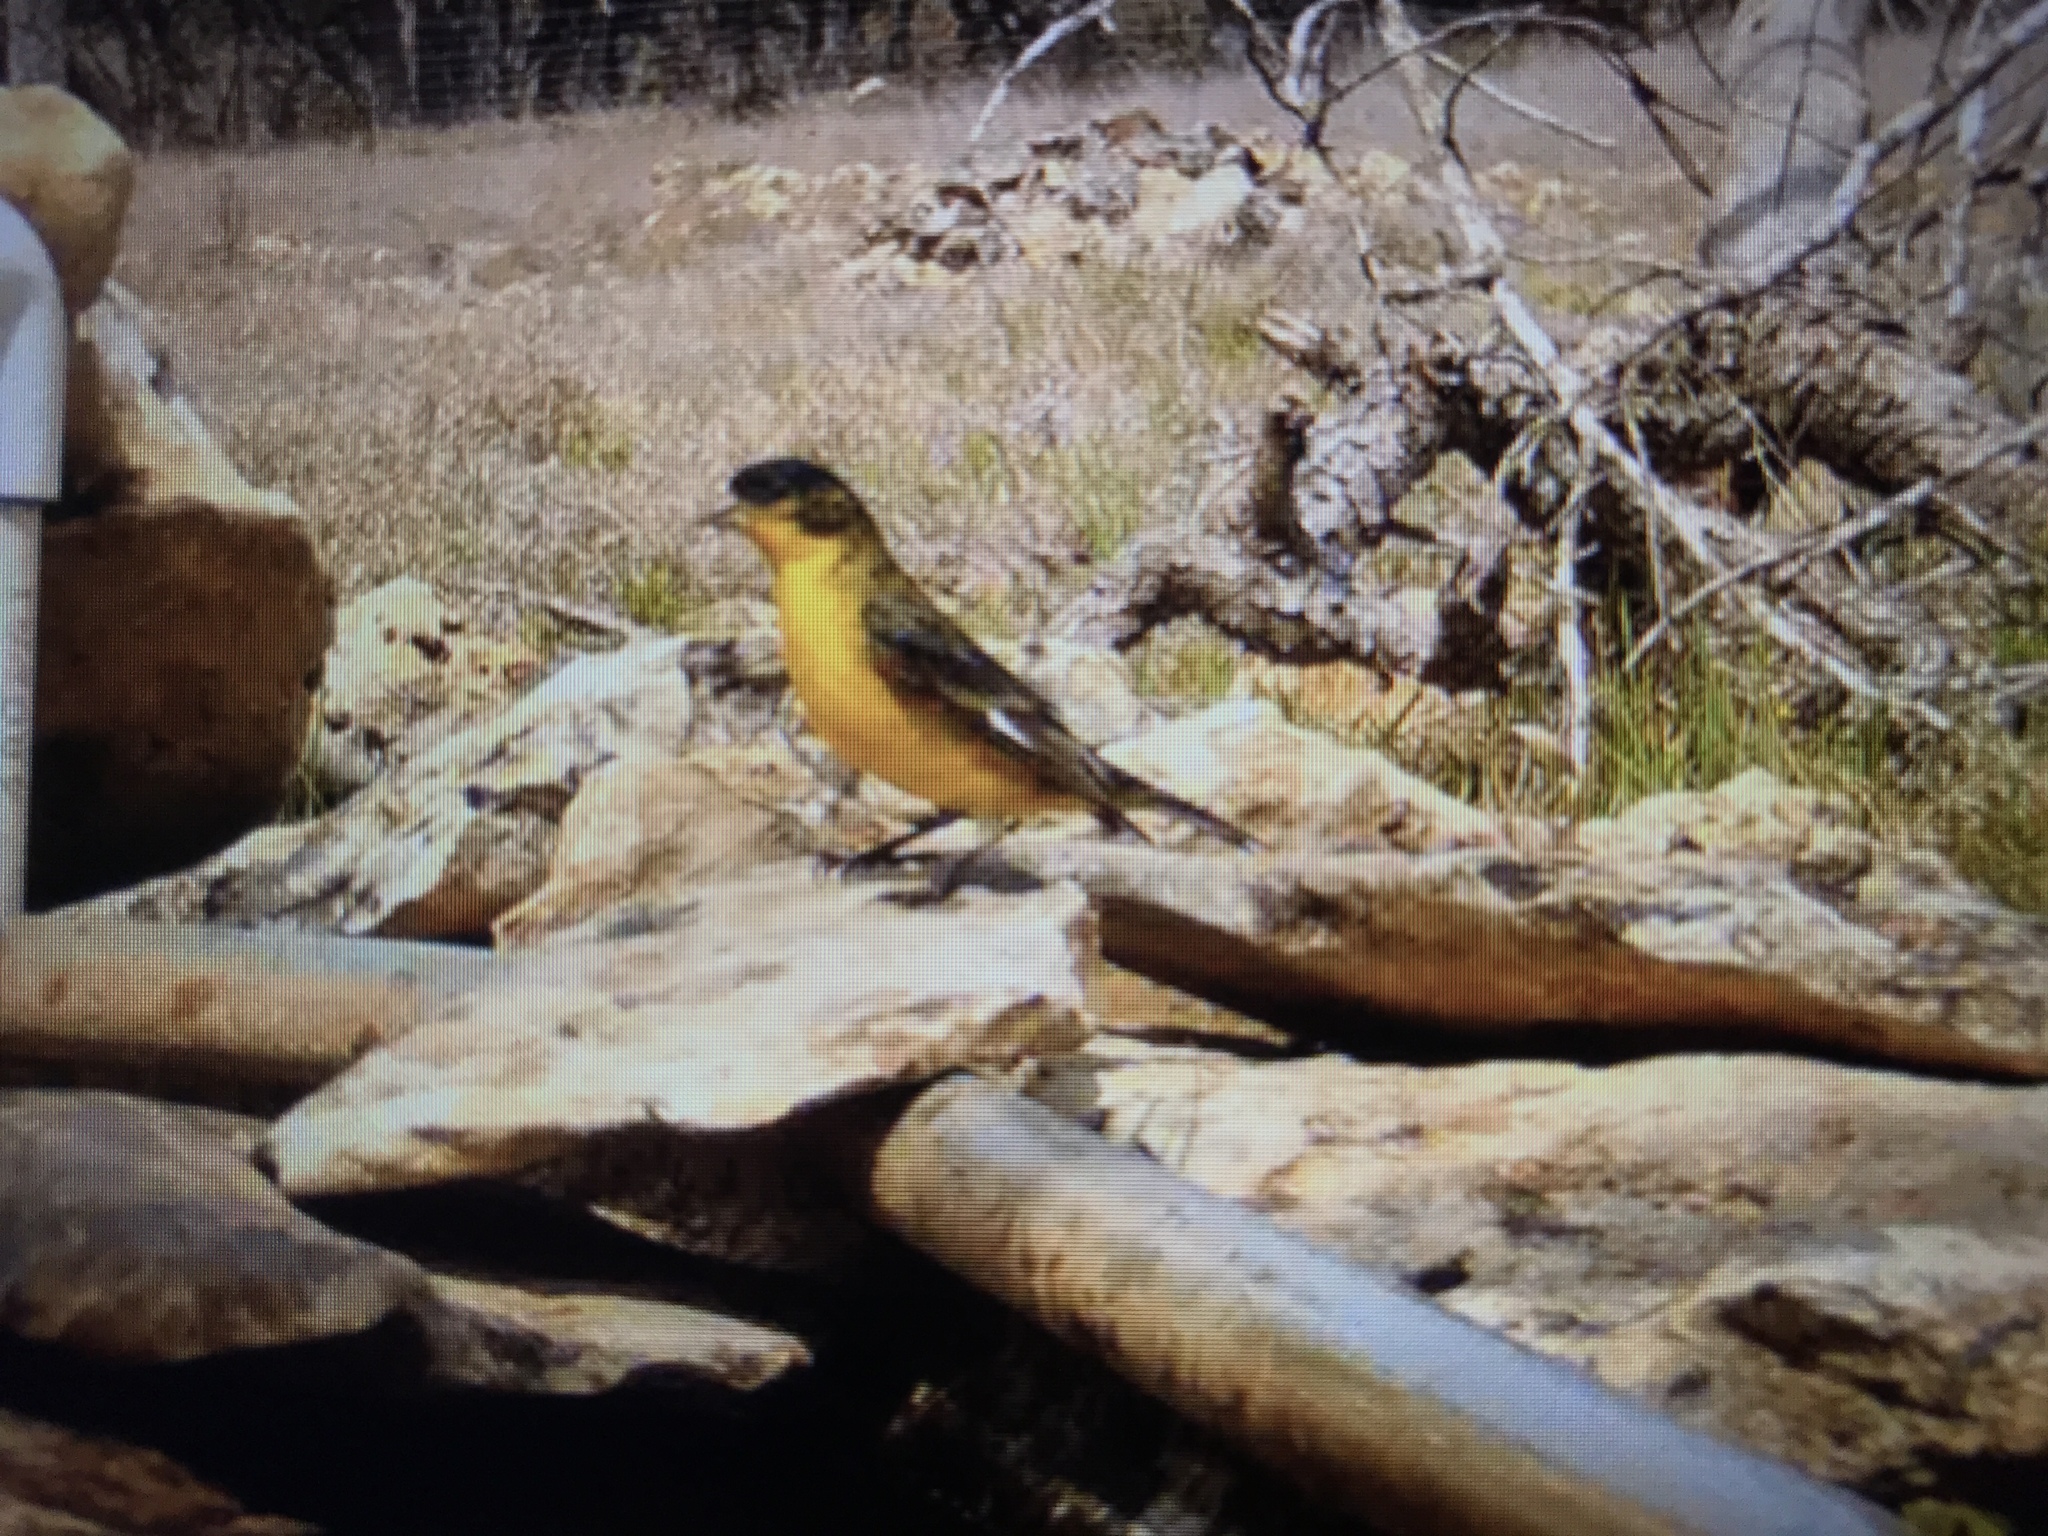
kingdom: Animalia
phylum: Chordata
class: Aves
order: Passeriformes
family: Fringillidae
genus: Spinus
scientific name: Spinus psaltria
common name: Lesser goldfinch
